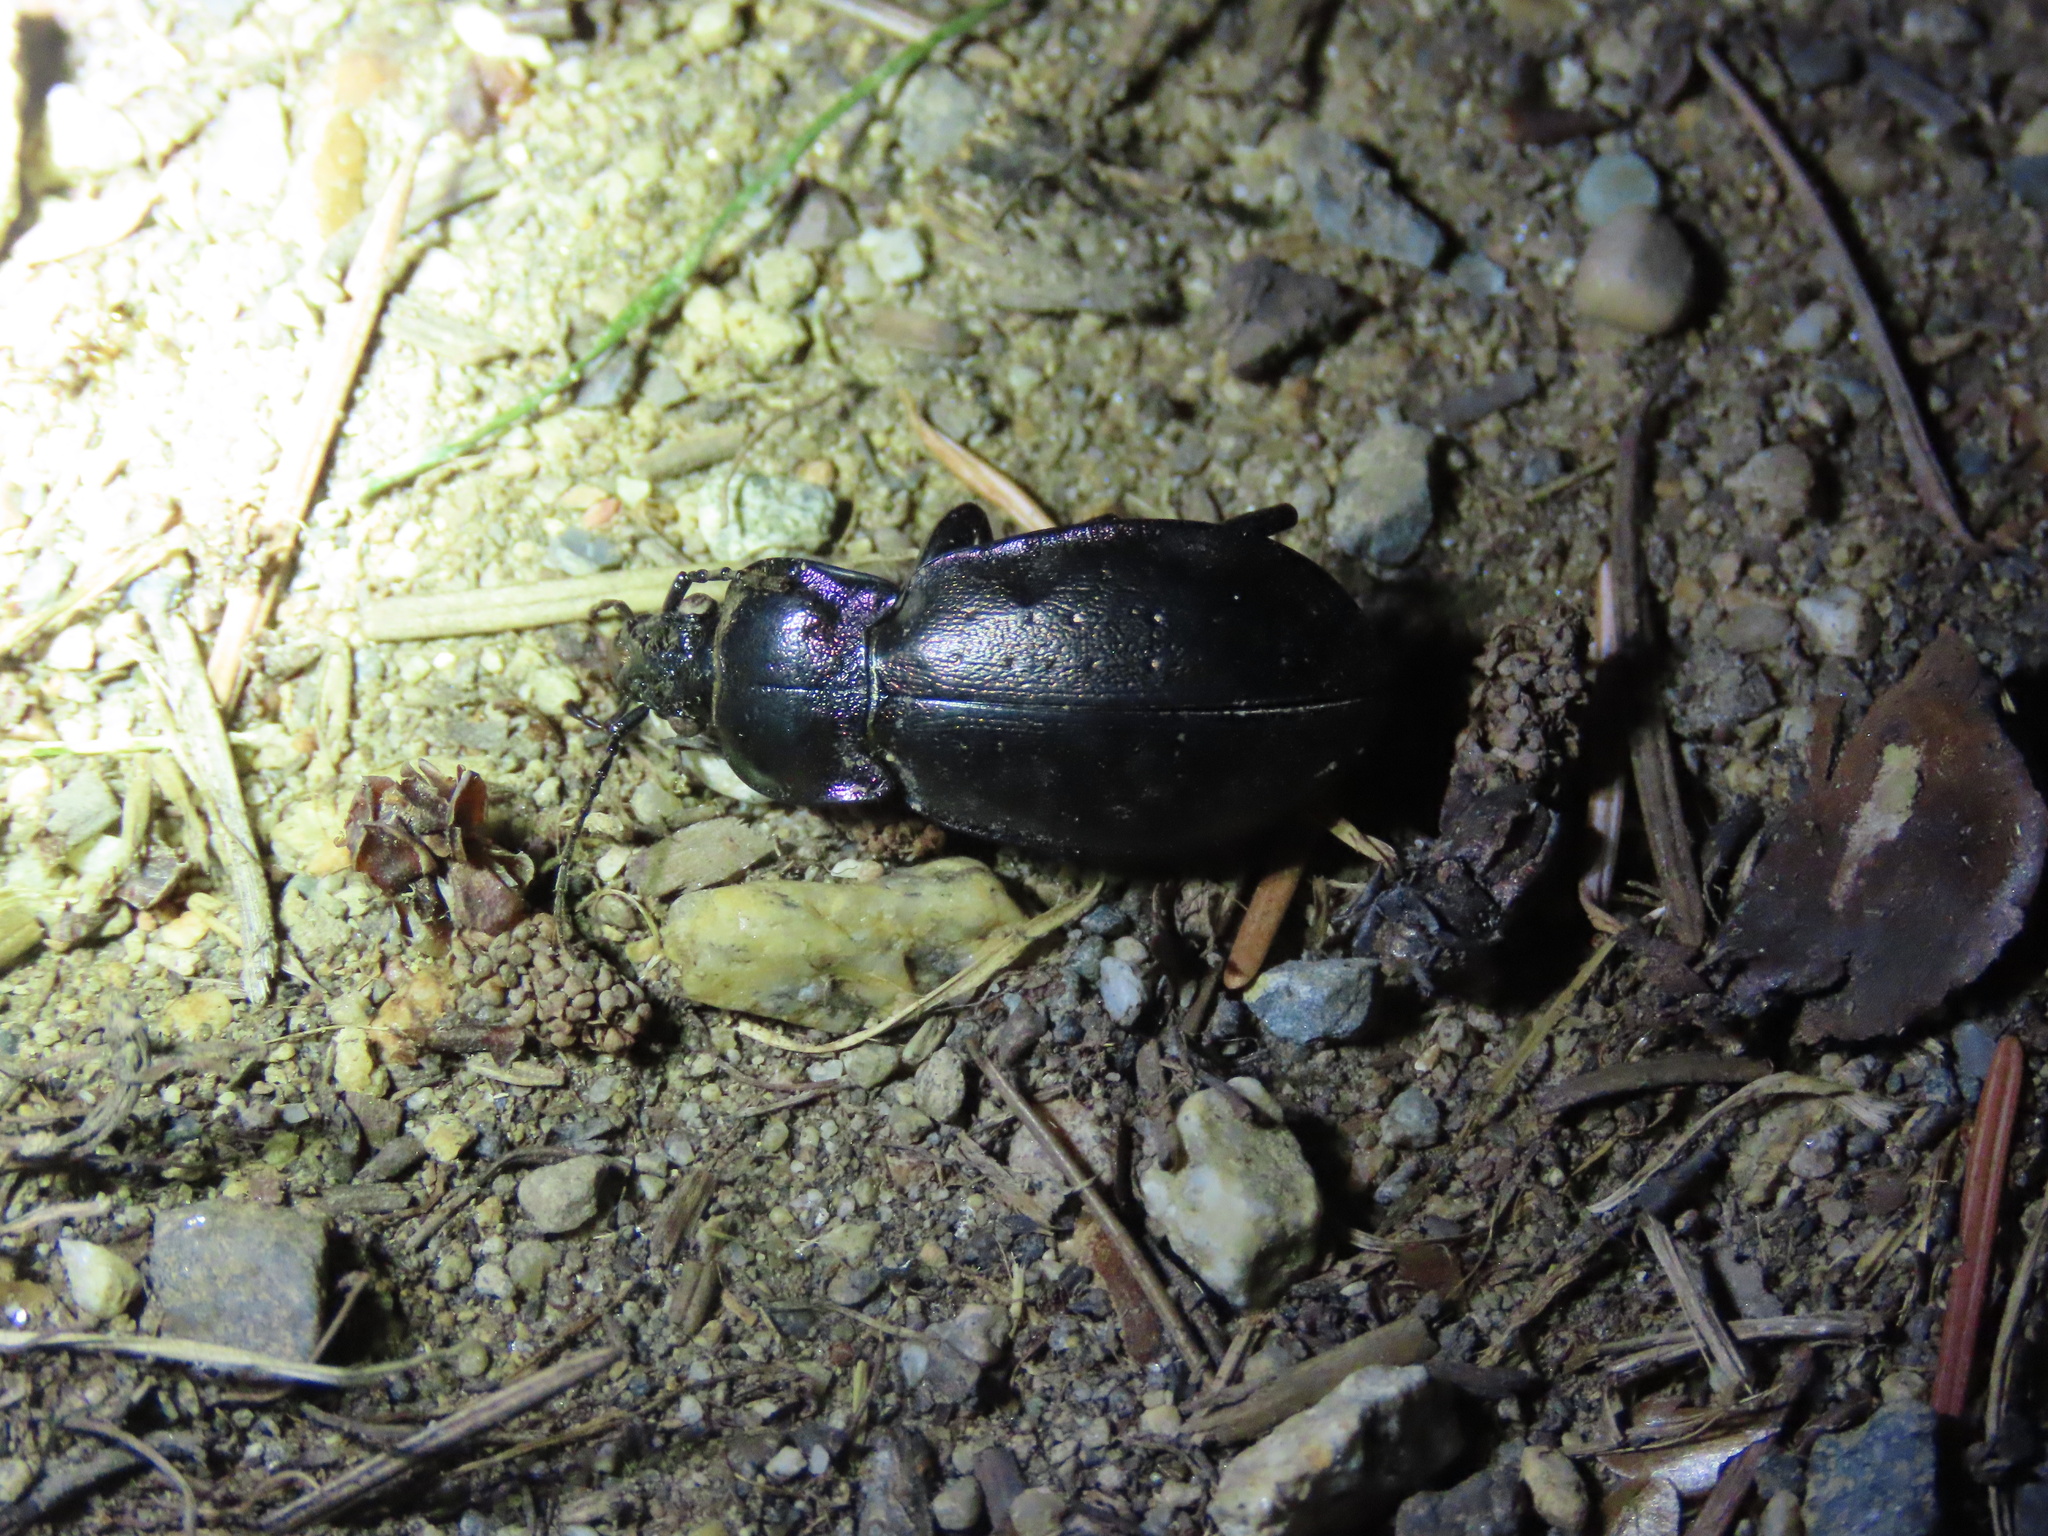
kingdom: Animalia
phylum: Arthropoda
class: Insecta
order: Coleoptera
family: Carabidae
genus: Carabus
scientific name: Carabus nemoralis
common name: European ground beetle
